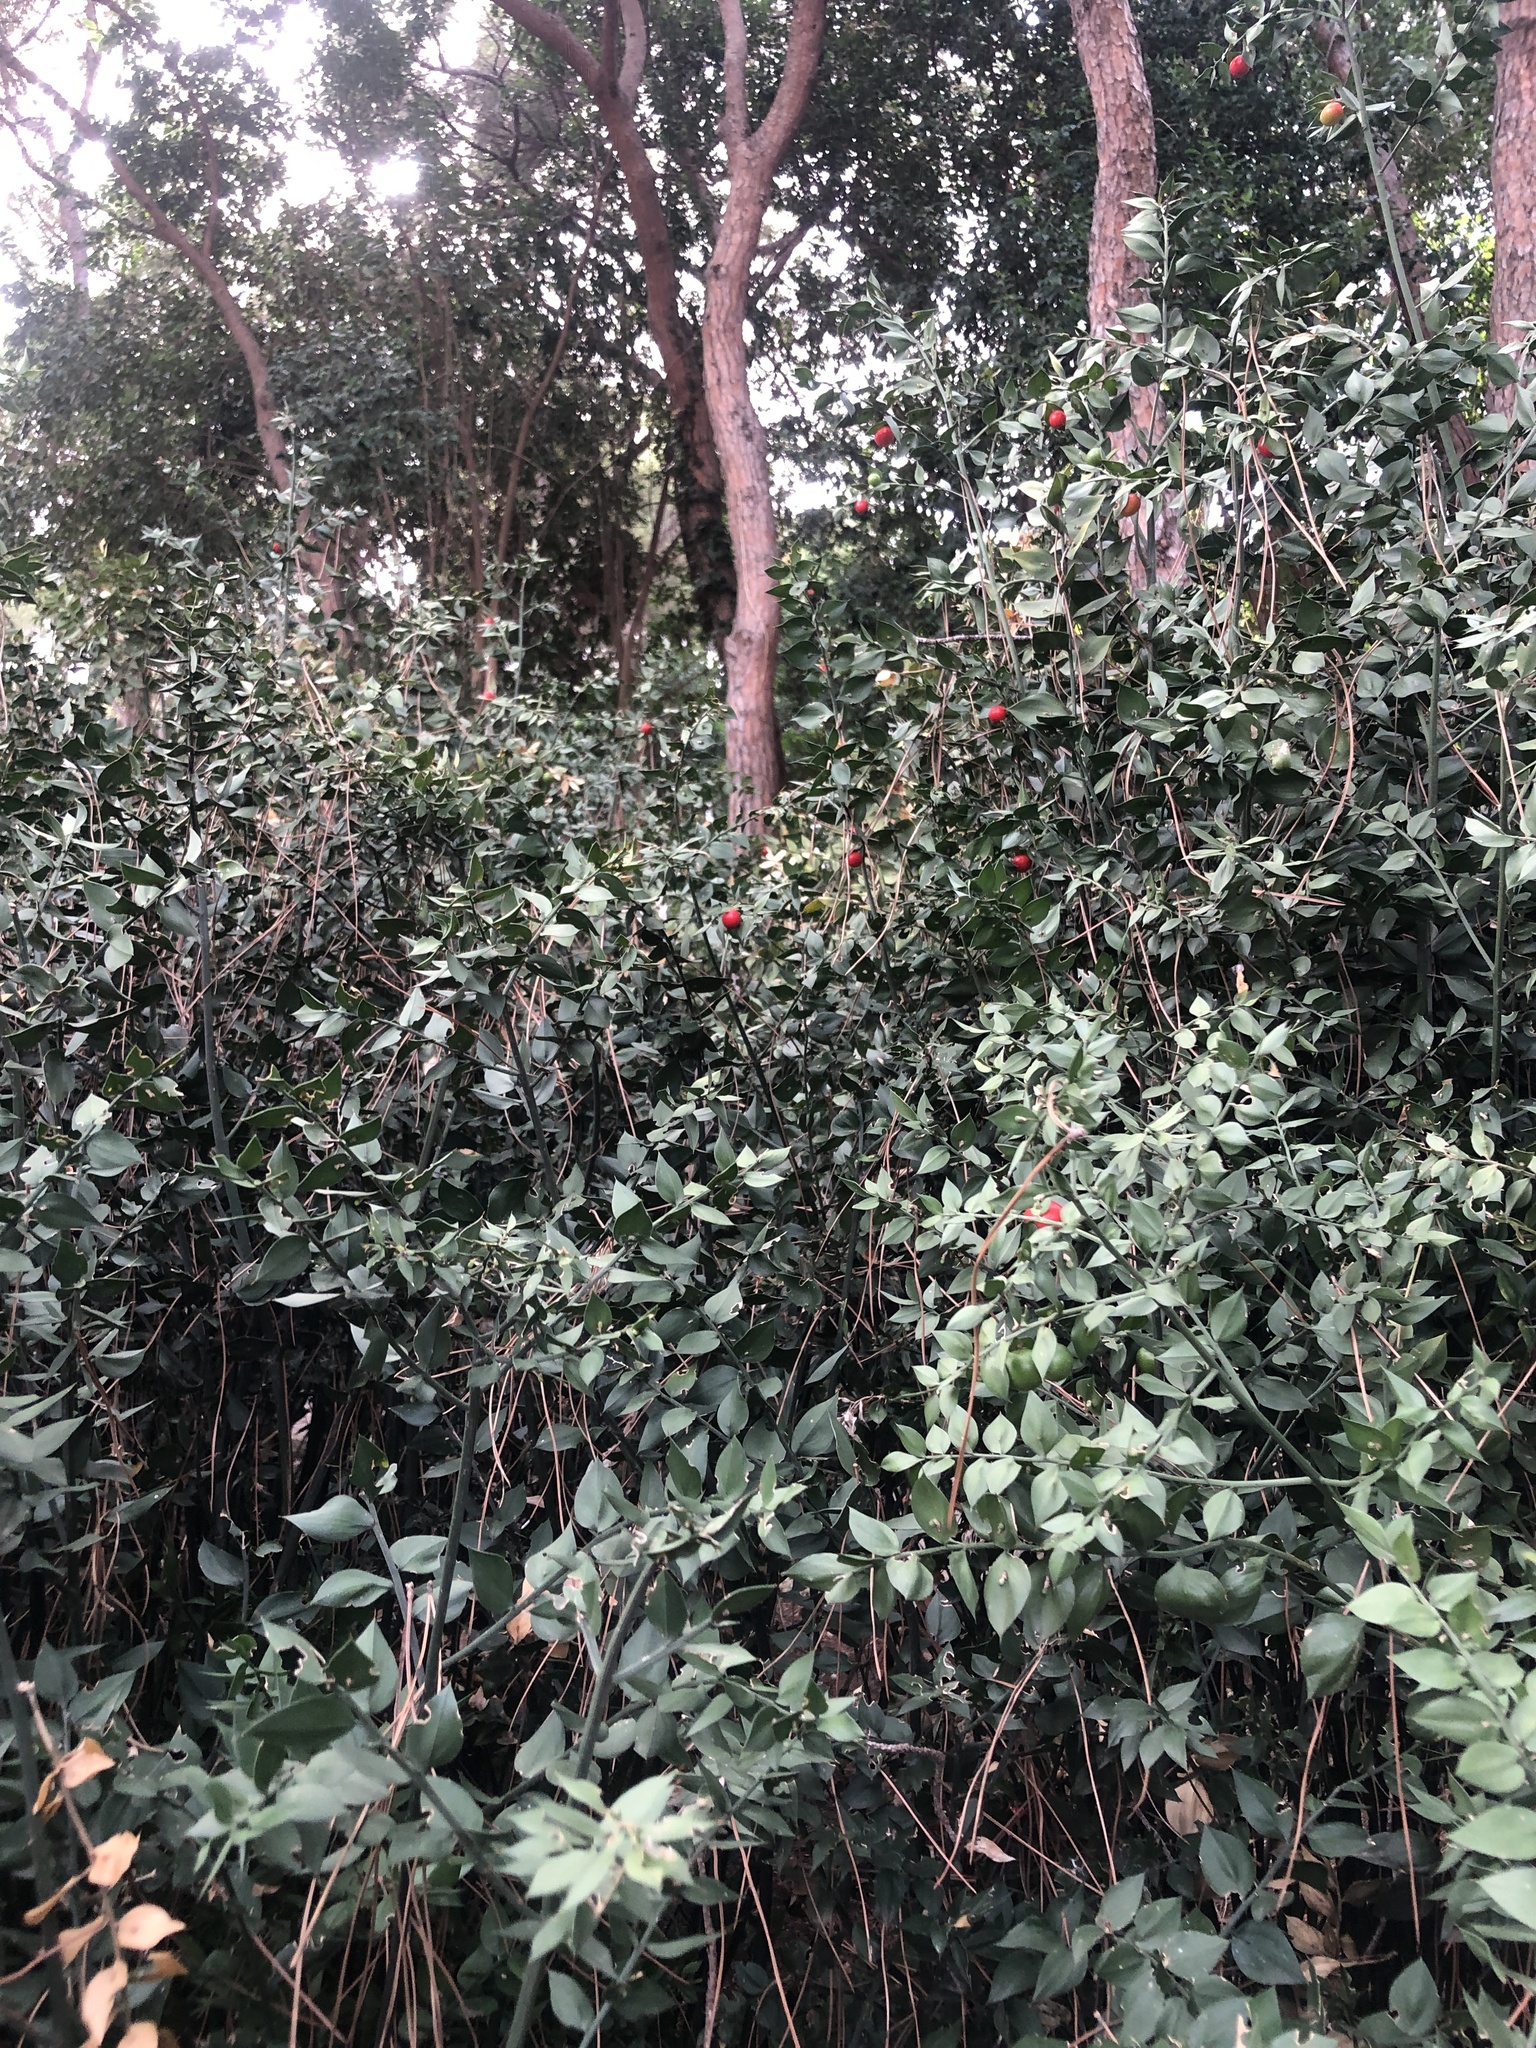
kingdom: Plantae
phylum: Tracheophyta
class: Liliopsida
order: Asparagales
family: Asparagaceae
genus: Ruscus
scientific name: Ruscus aculeatus
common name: Butcher's-broom
